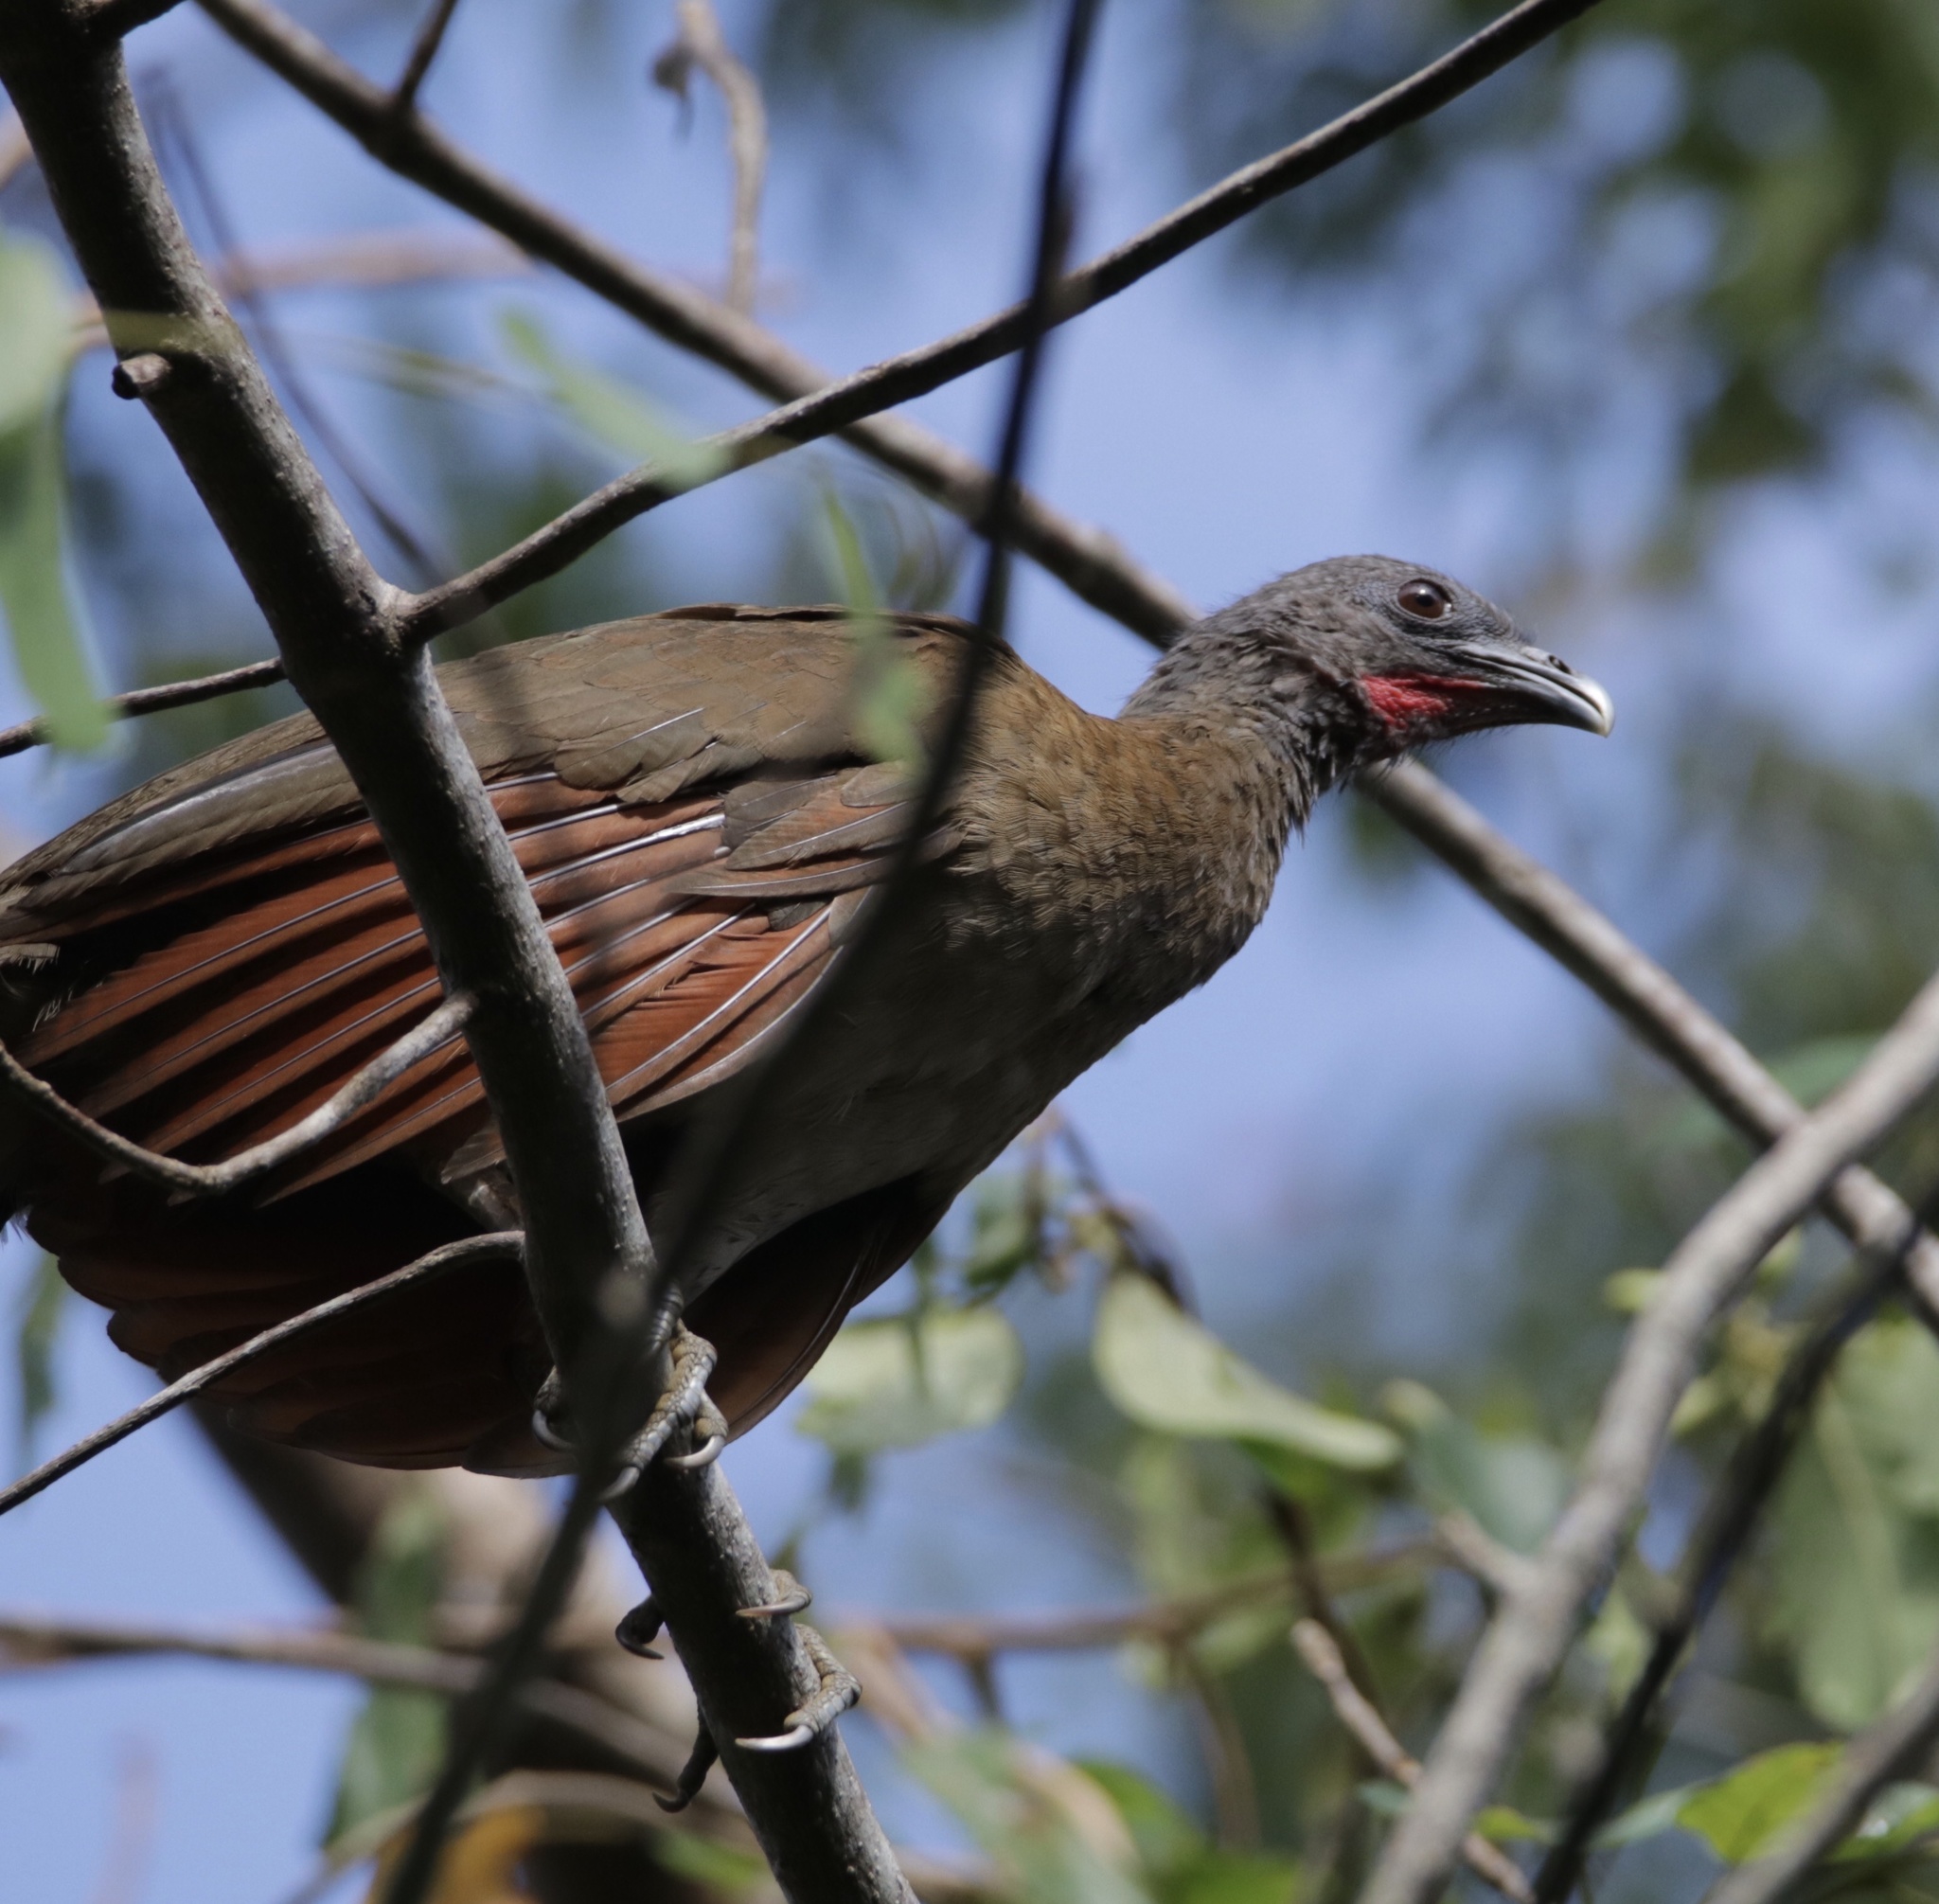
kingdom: Animalia
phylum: Chordata
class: Aves
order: Galliformes
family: Cracidae
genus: Ortalis
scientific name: Ortalis cinereiceps
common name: Grey-headed chachalaca
